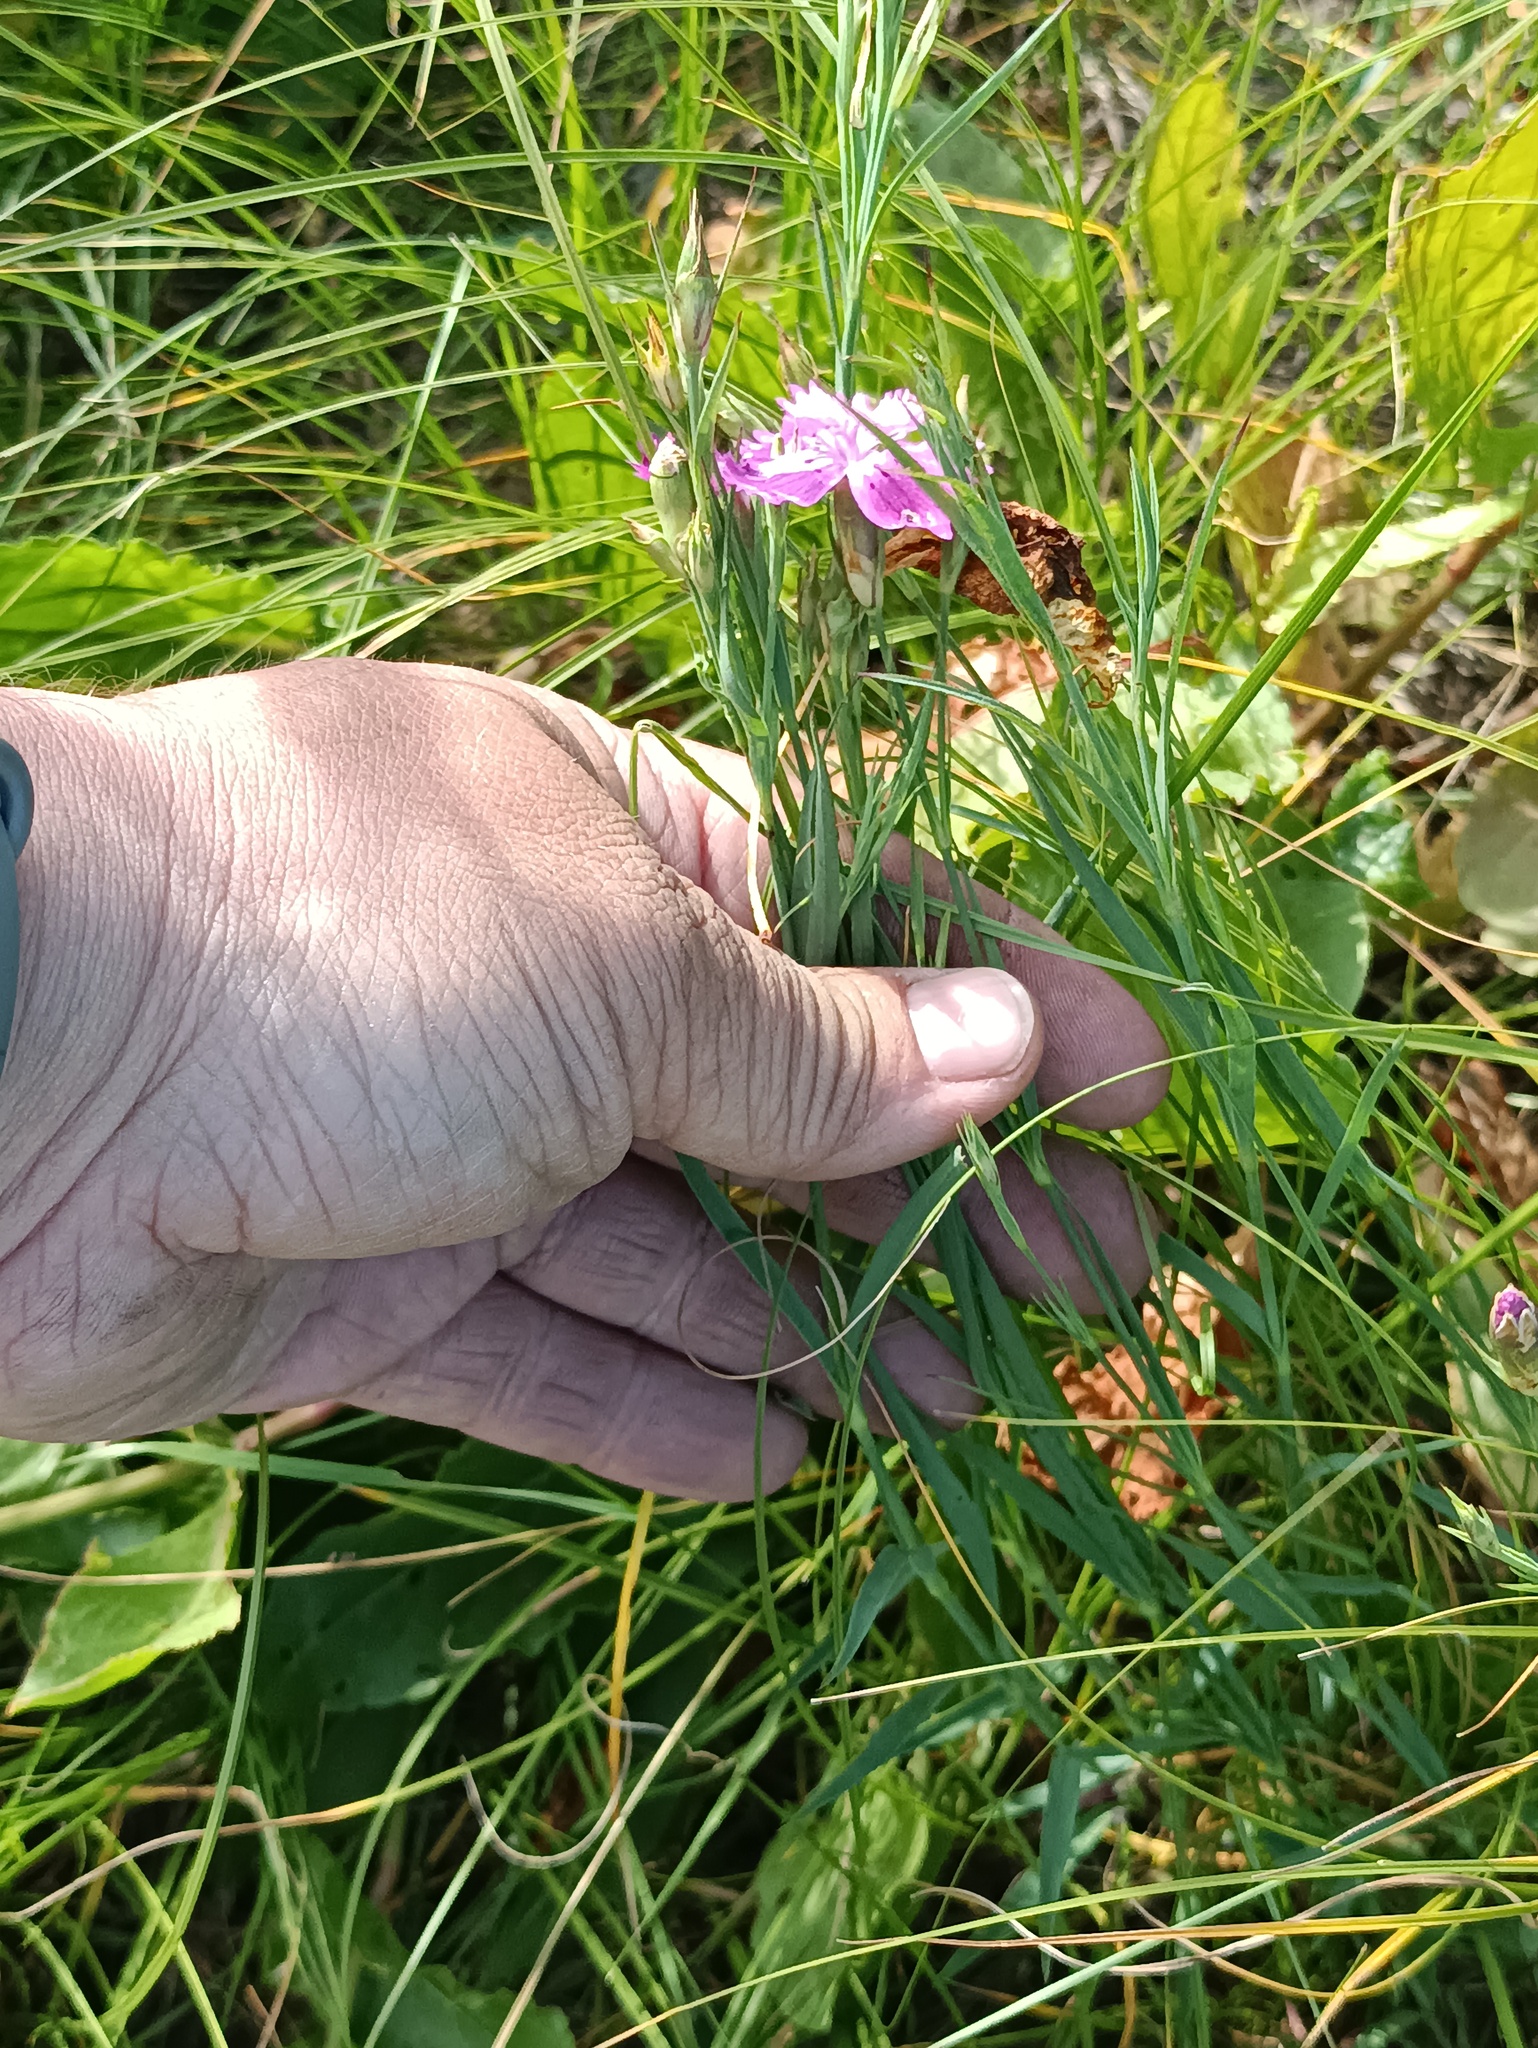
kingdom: Plantae
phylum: Tracheophyta
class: Magnoliopsida
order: Caryophyllales
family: Caryophyllaceae
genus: Dianthus
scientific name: Dianthus chinensis
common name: Rainbow pink
